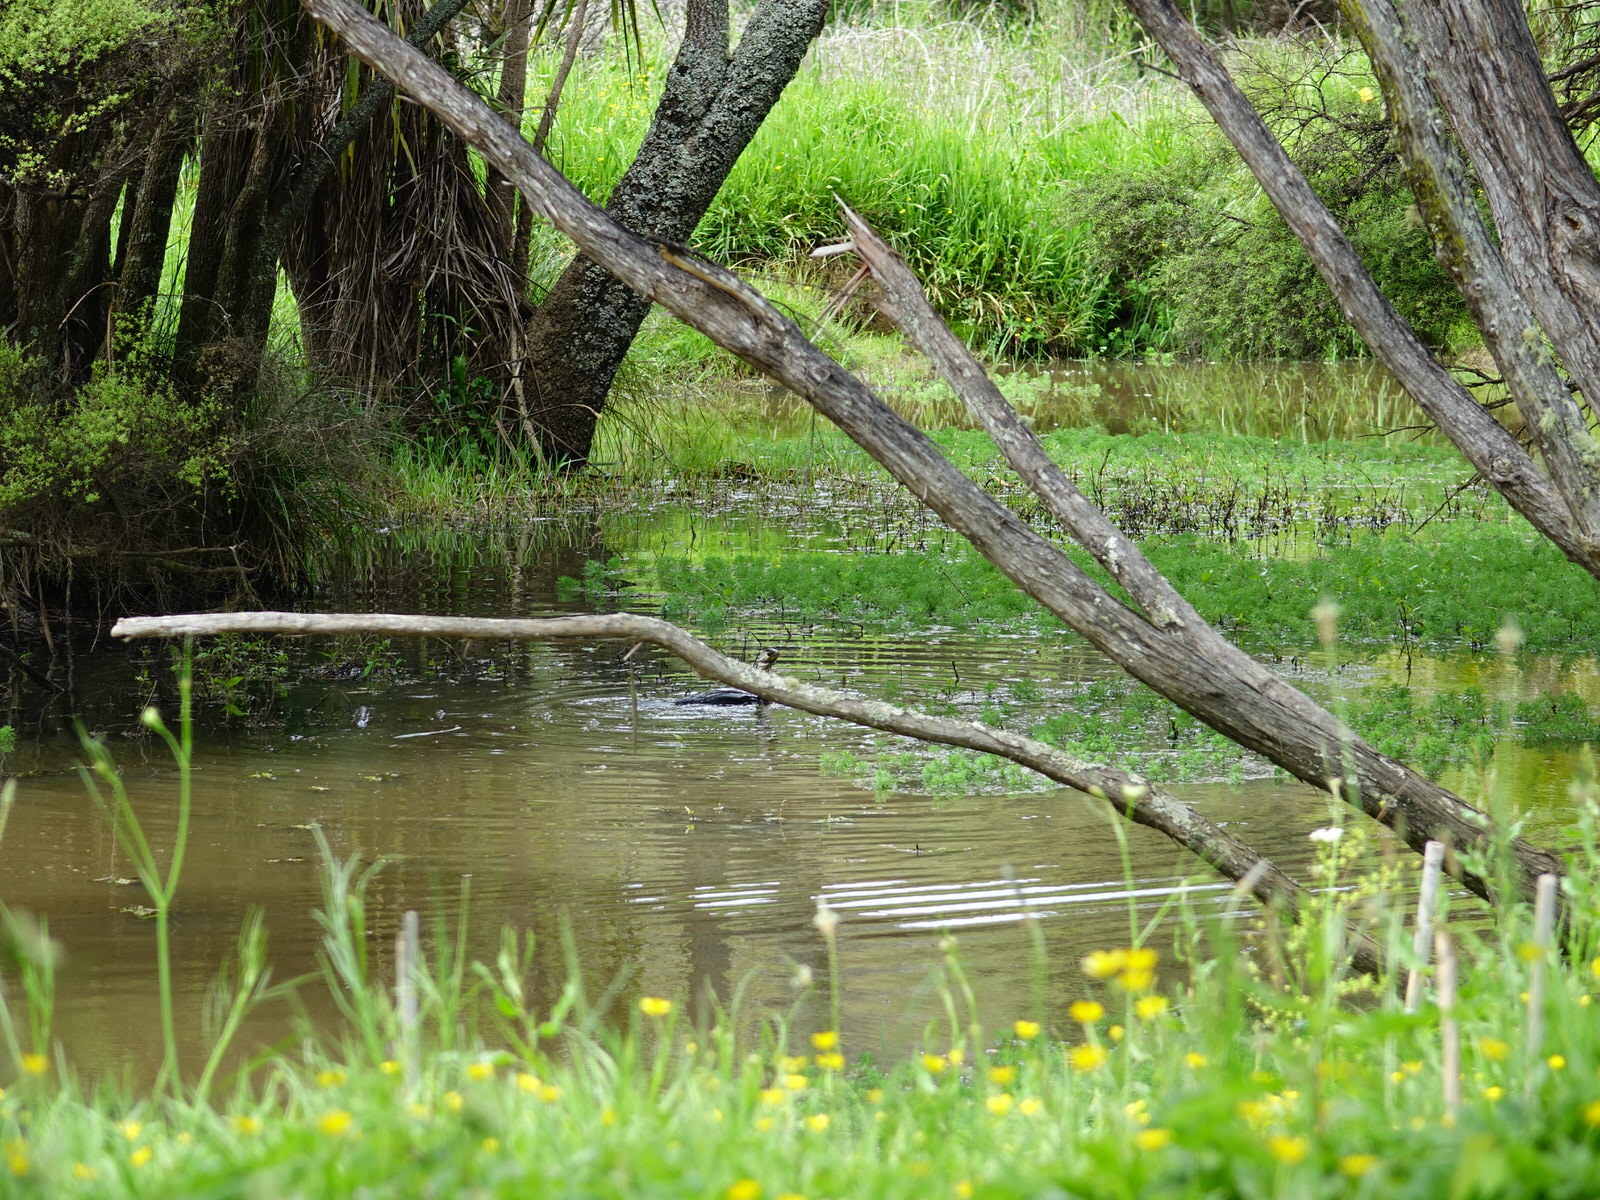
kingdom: Animalia
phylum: Chordata
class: Aves
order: Suliformes
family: Phalacrocoracidae
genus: Microcarbo
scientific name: Microcarbo melanoleucos
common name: Little pied cormorant
